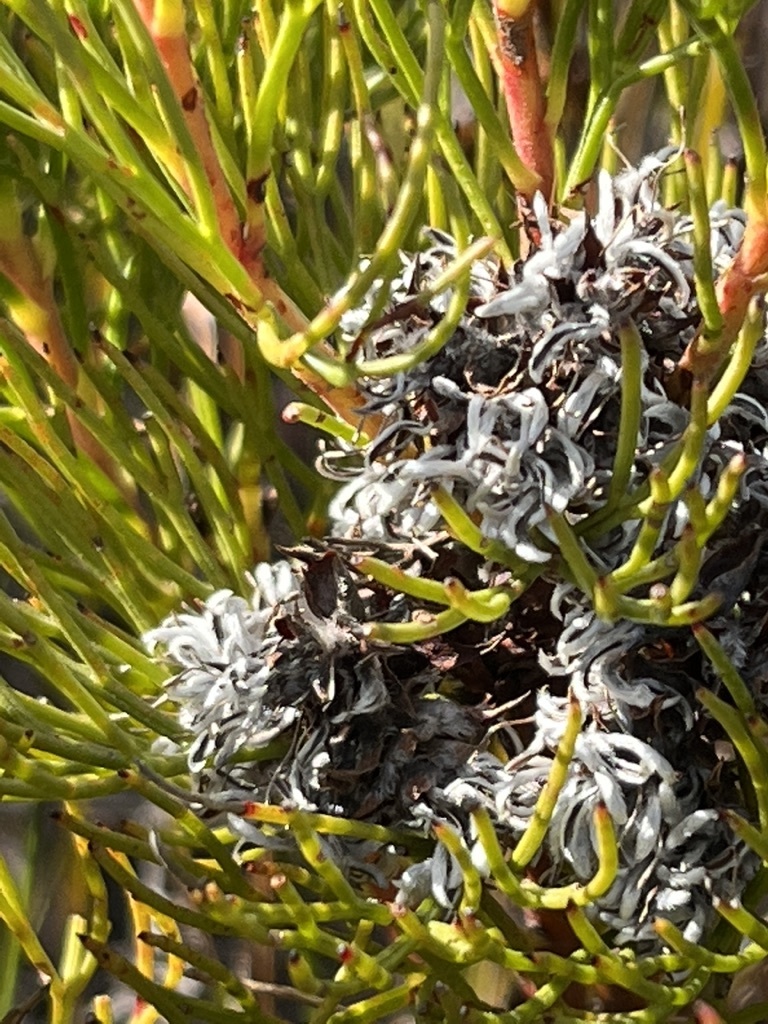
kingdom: Plantae
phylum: Tracheophyta
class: Magnoliopsida
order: Proteales
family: Proteaceae
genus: Serruria
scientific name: Serruria ascendens
